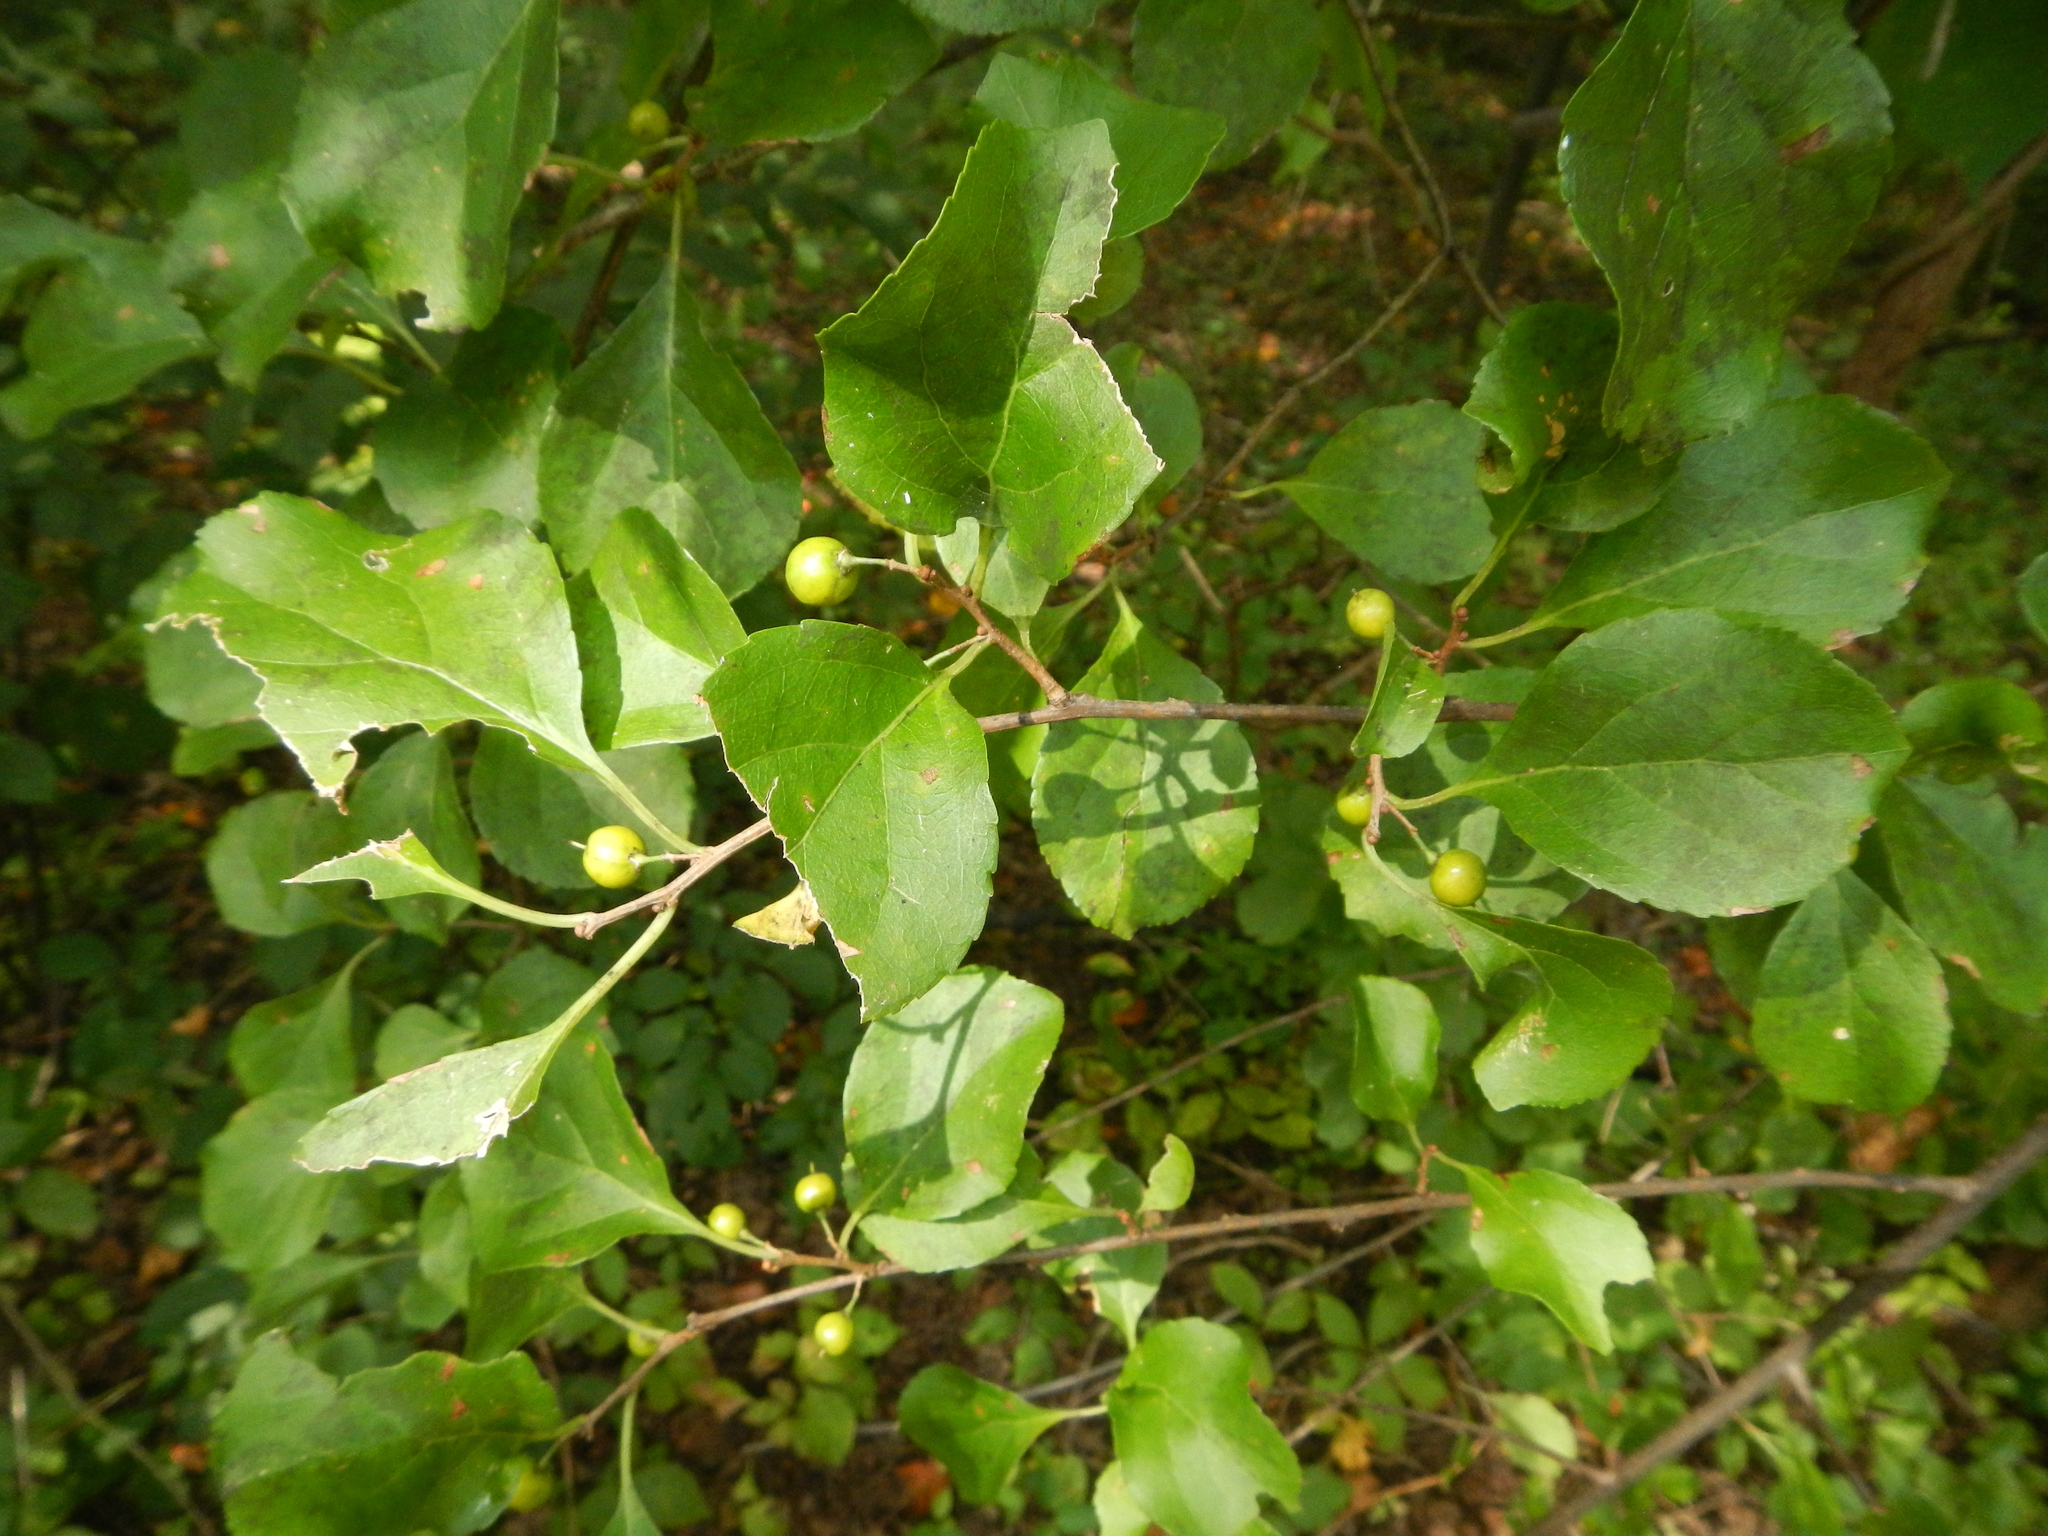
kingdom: Plantae
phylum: Tracheophyta
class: Magnoliopsida
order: Celastrales
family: Celastraceae
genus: Celastrus
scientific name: Celastrus orbiculatus
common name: Oriental bittersweet
